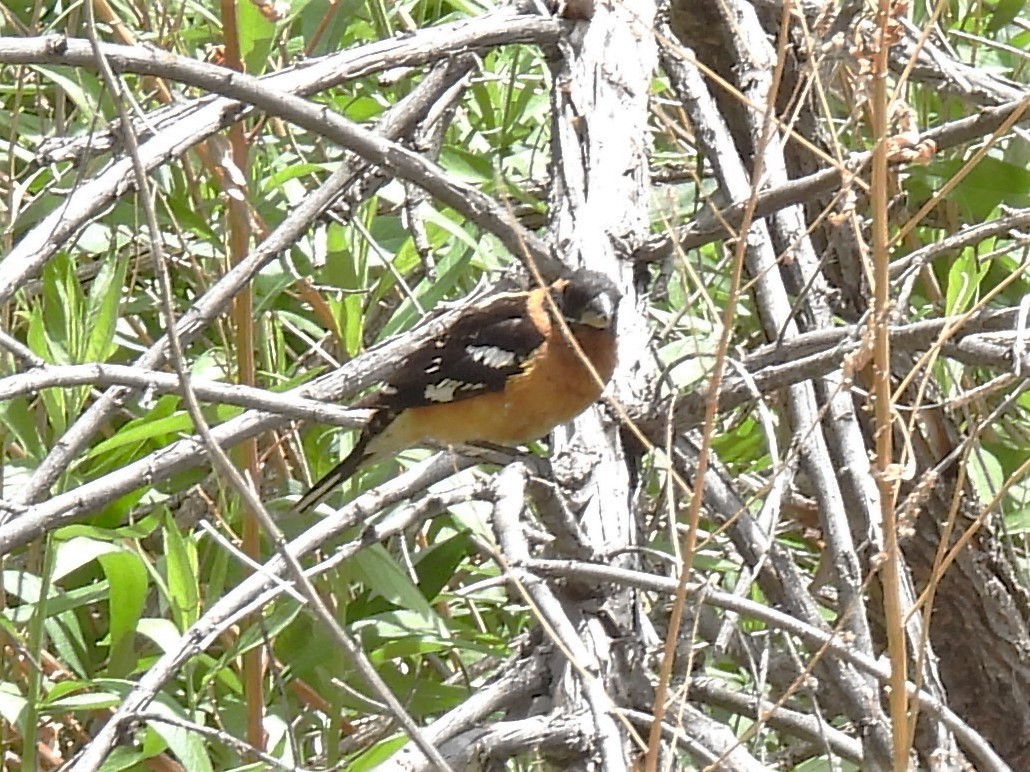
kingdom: Animalia
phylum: Chordata
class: Aves
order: Passeriformes
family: Cardinalidae
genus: Pheucticus
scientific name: Pheucticus melanocephalus
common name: Black-headed grosbeak
